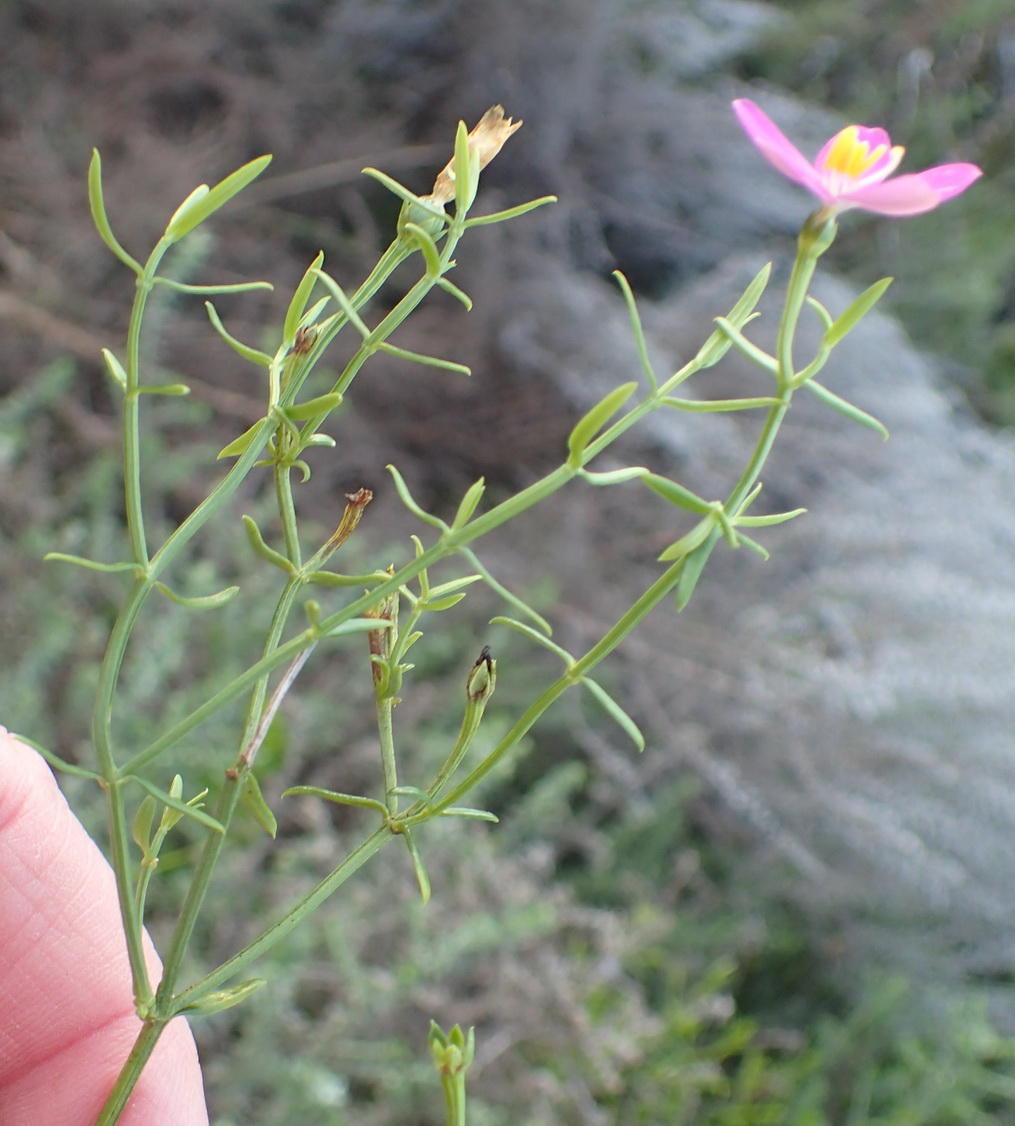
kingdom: Plantae
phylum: Tracheophyta
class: Magnoliopsida
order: Gentianales
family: Gentianaceae
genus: Chironia
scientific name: Chironia baccifera
